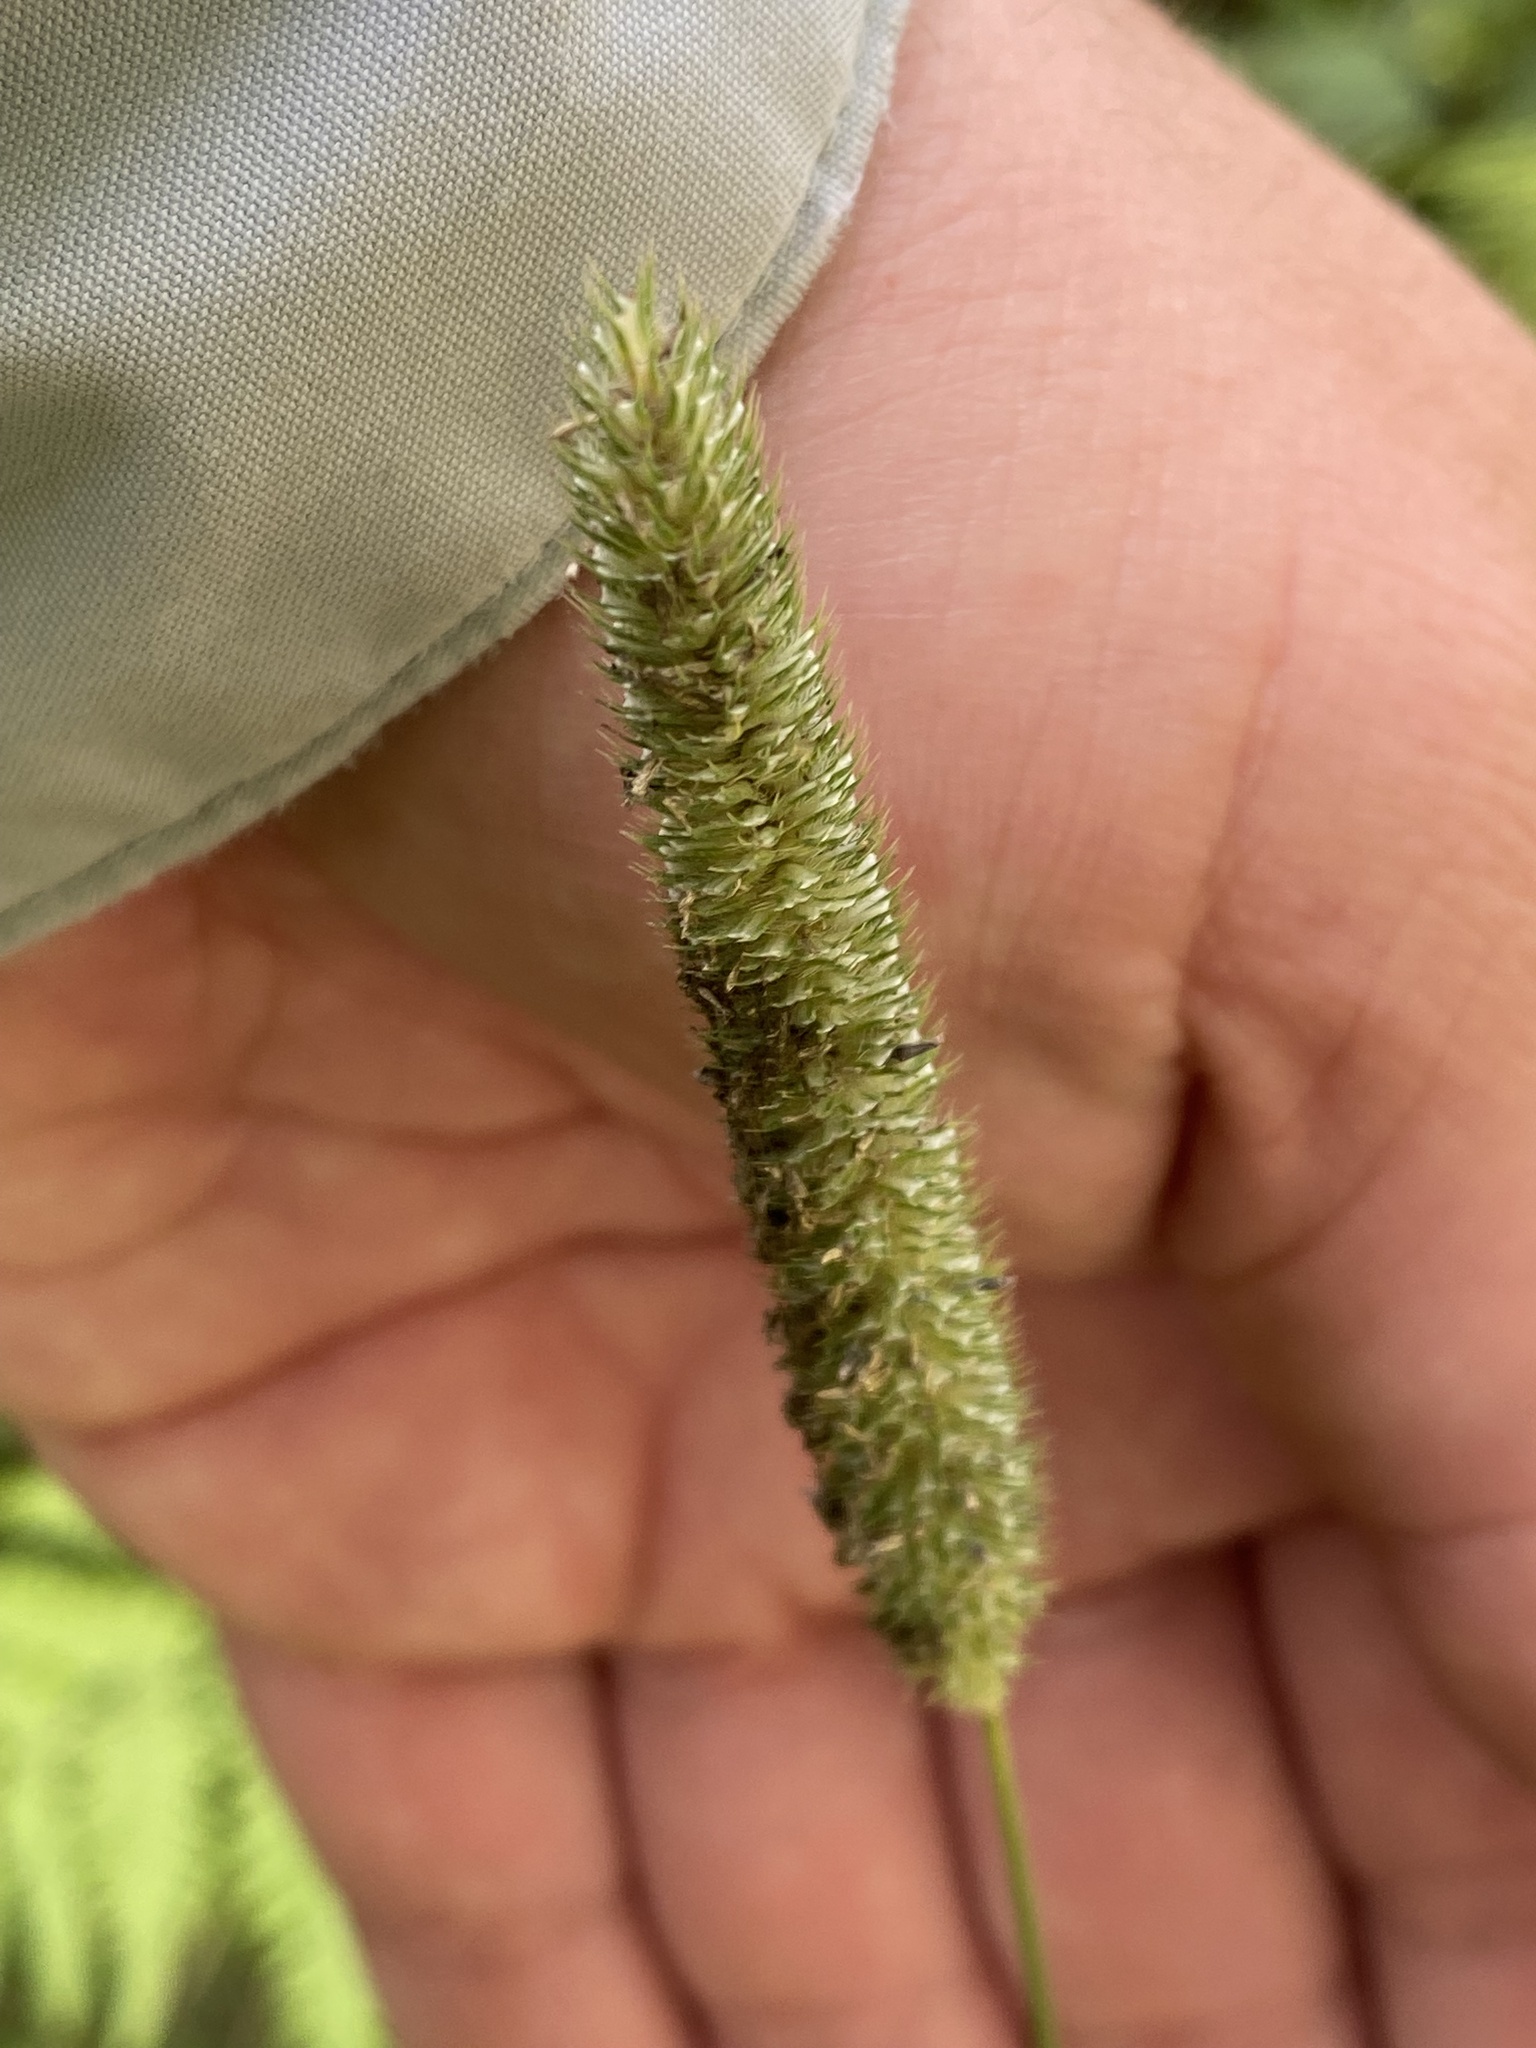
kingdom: Plantae
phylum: Tracheophyta
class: Liliopsida
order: Poales
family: Poaceae
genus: Phleum
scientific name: Phleum pratense
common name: Timothy grass
